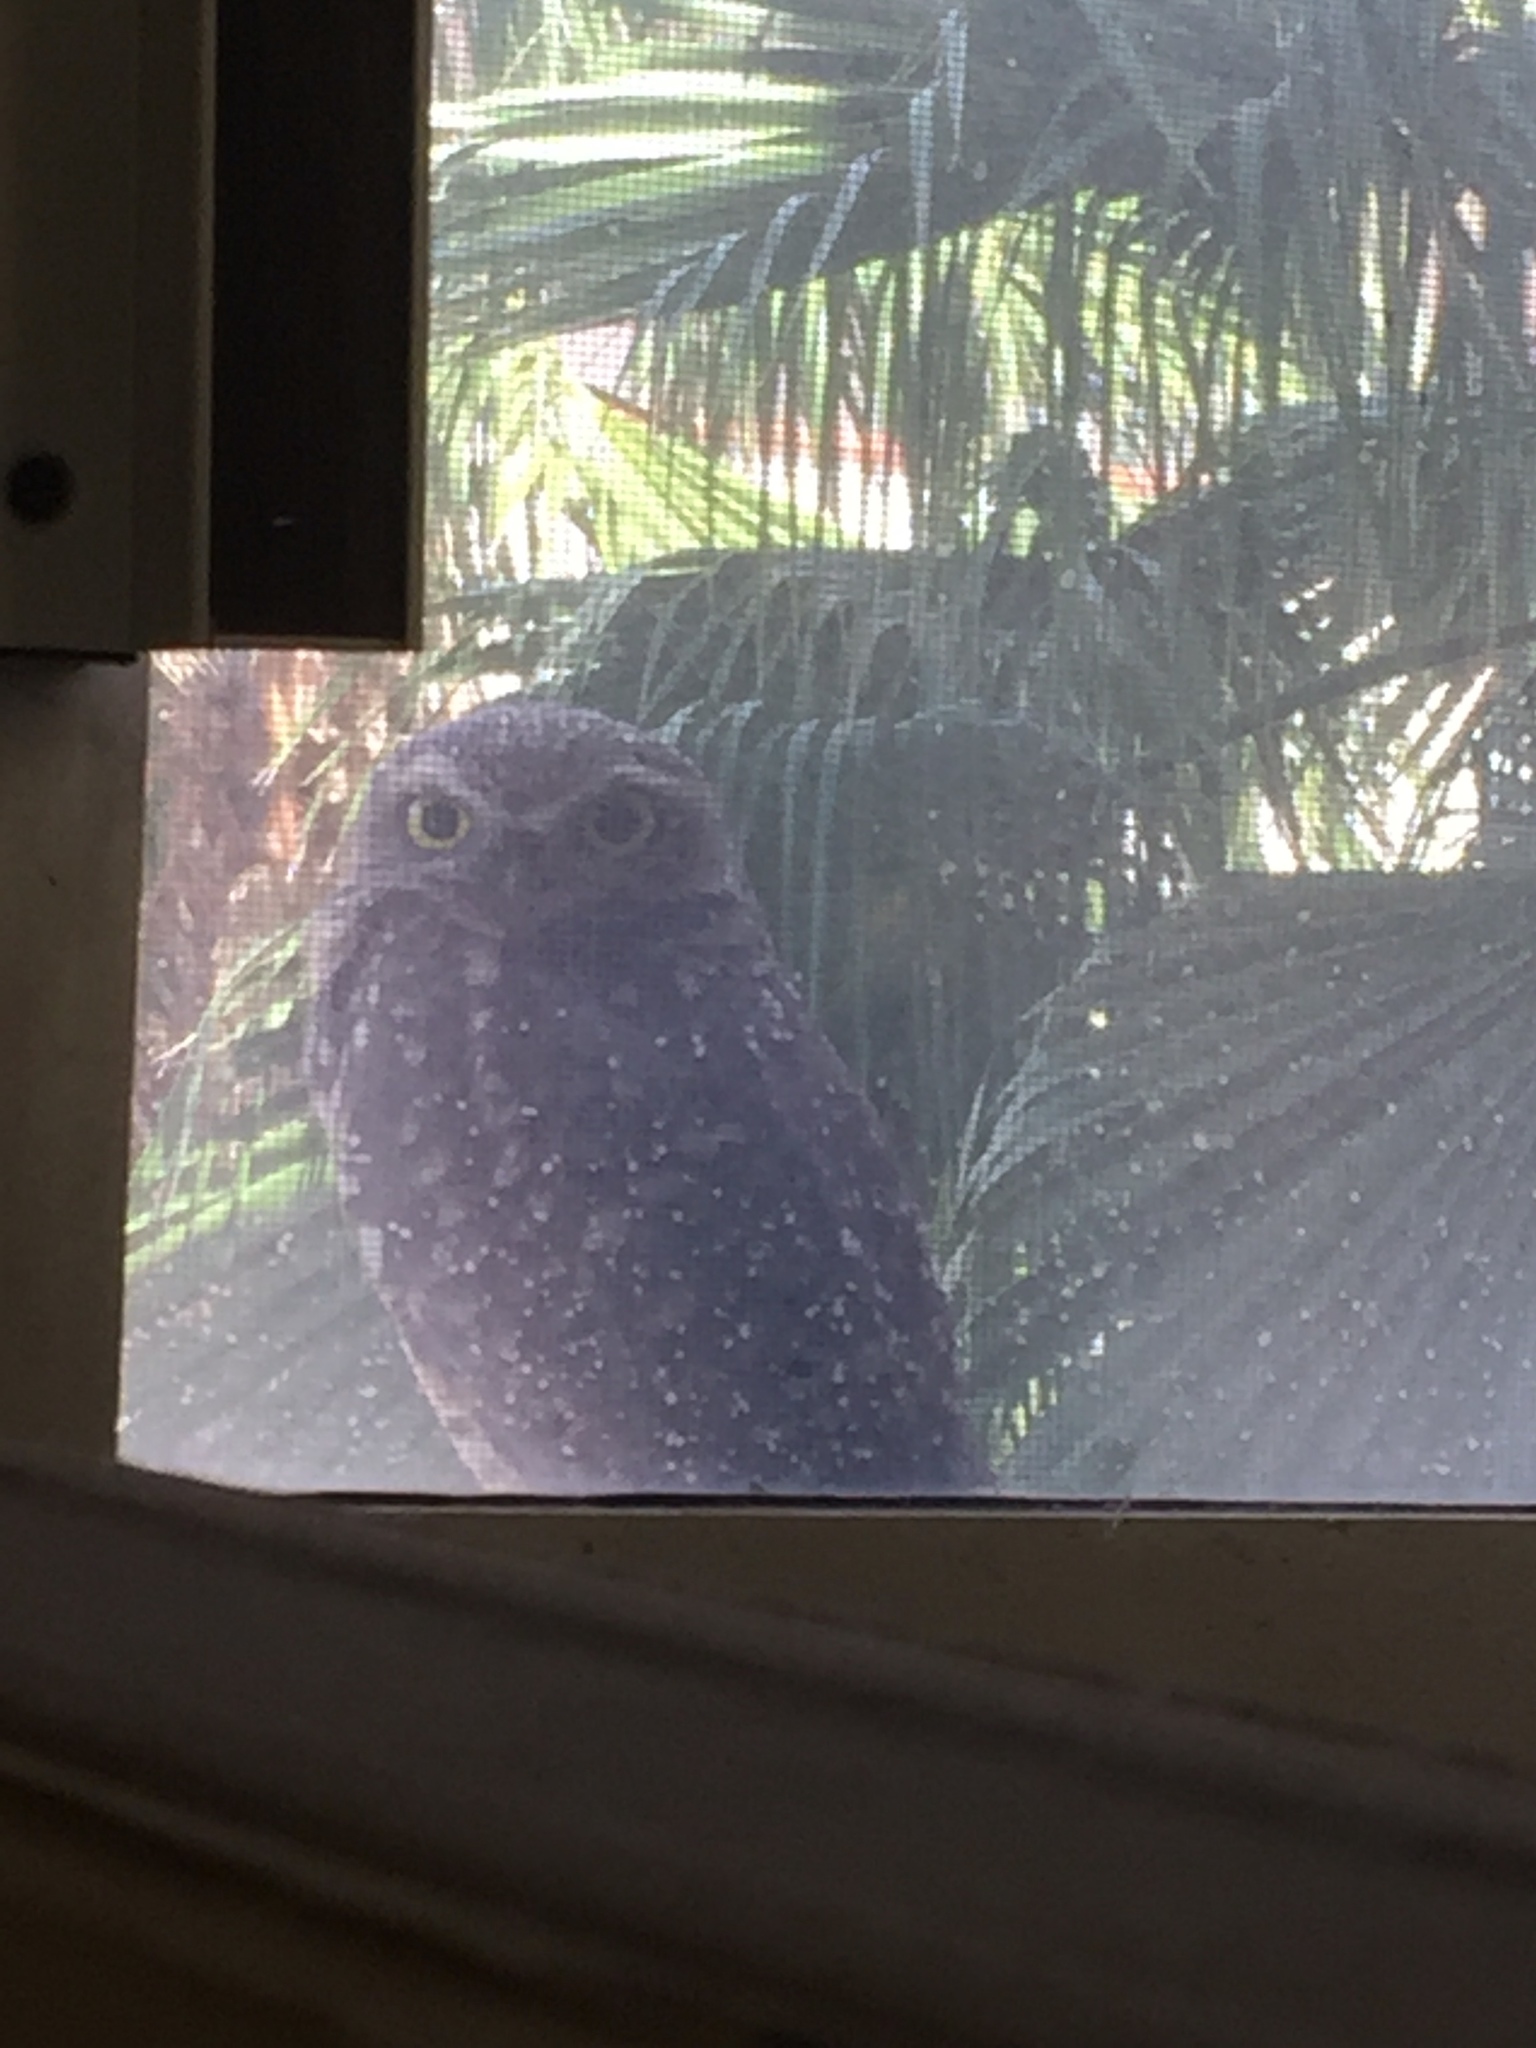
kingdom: Animalia
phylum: Chordata
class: Aves
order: Strigiformes
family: Strigidae
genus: Athene
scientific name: Athene cunicularia
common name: Burrowing owl
